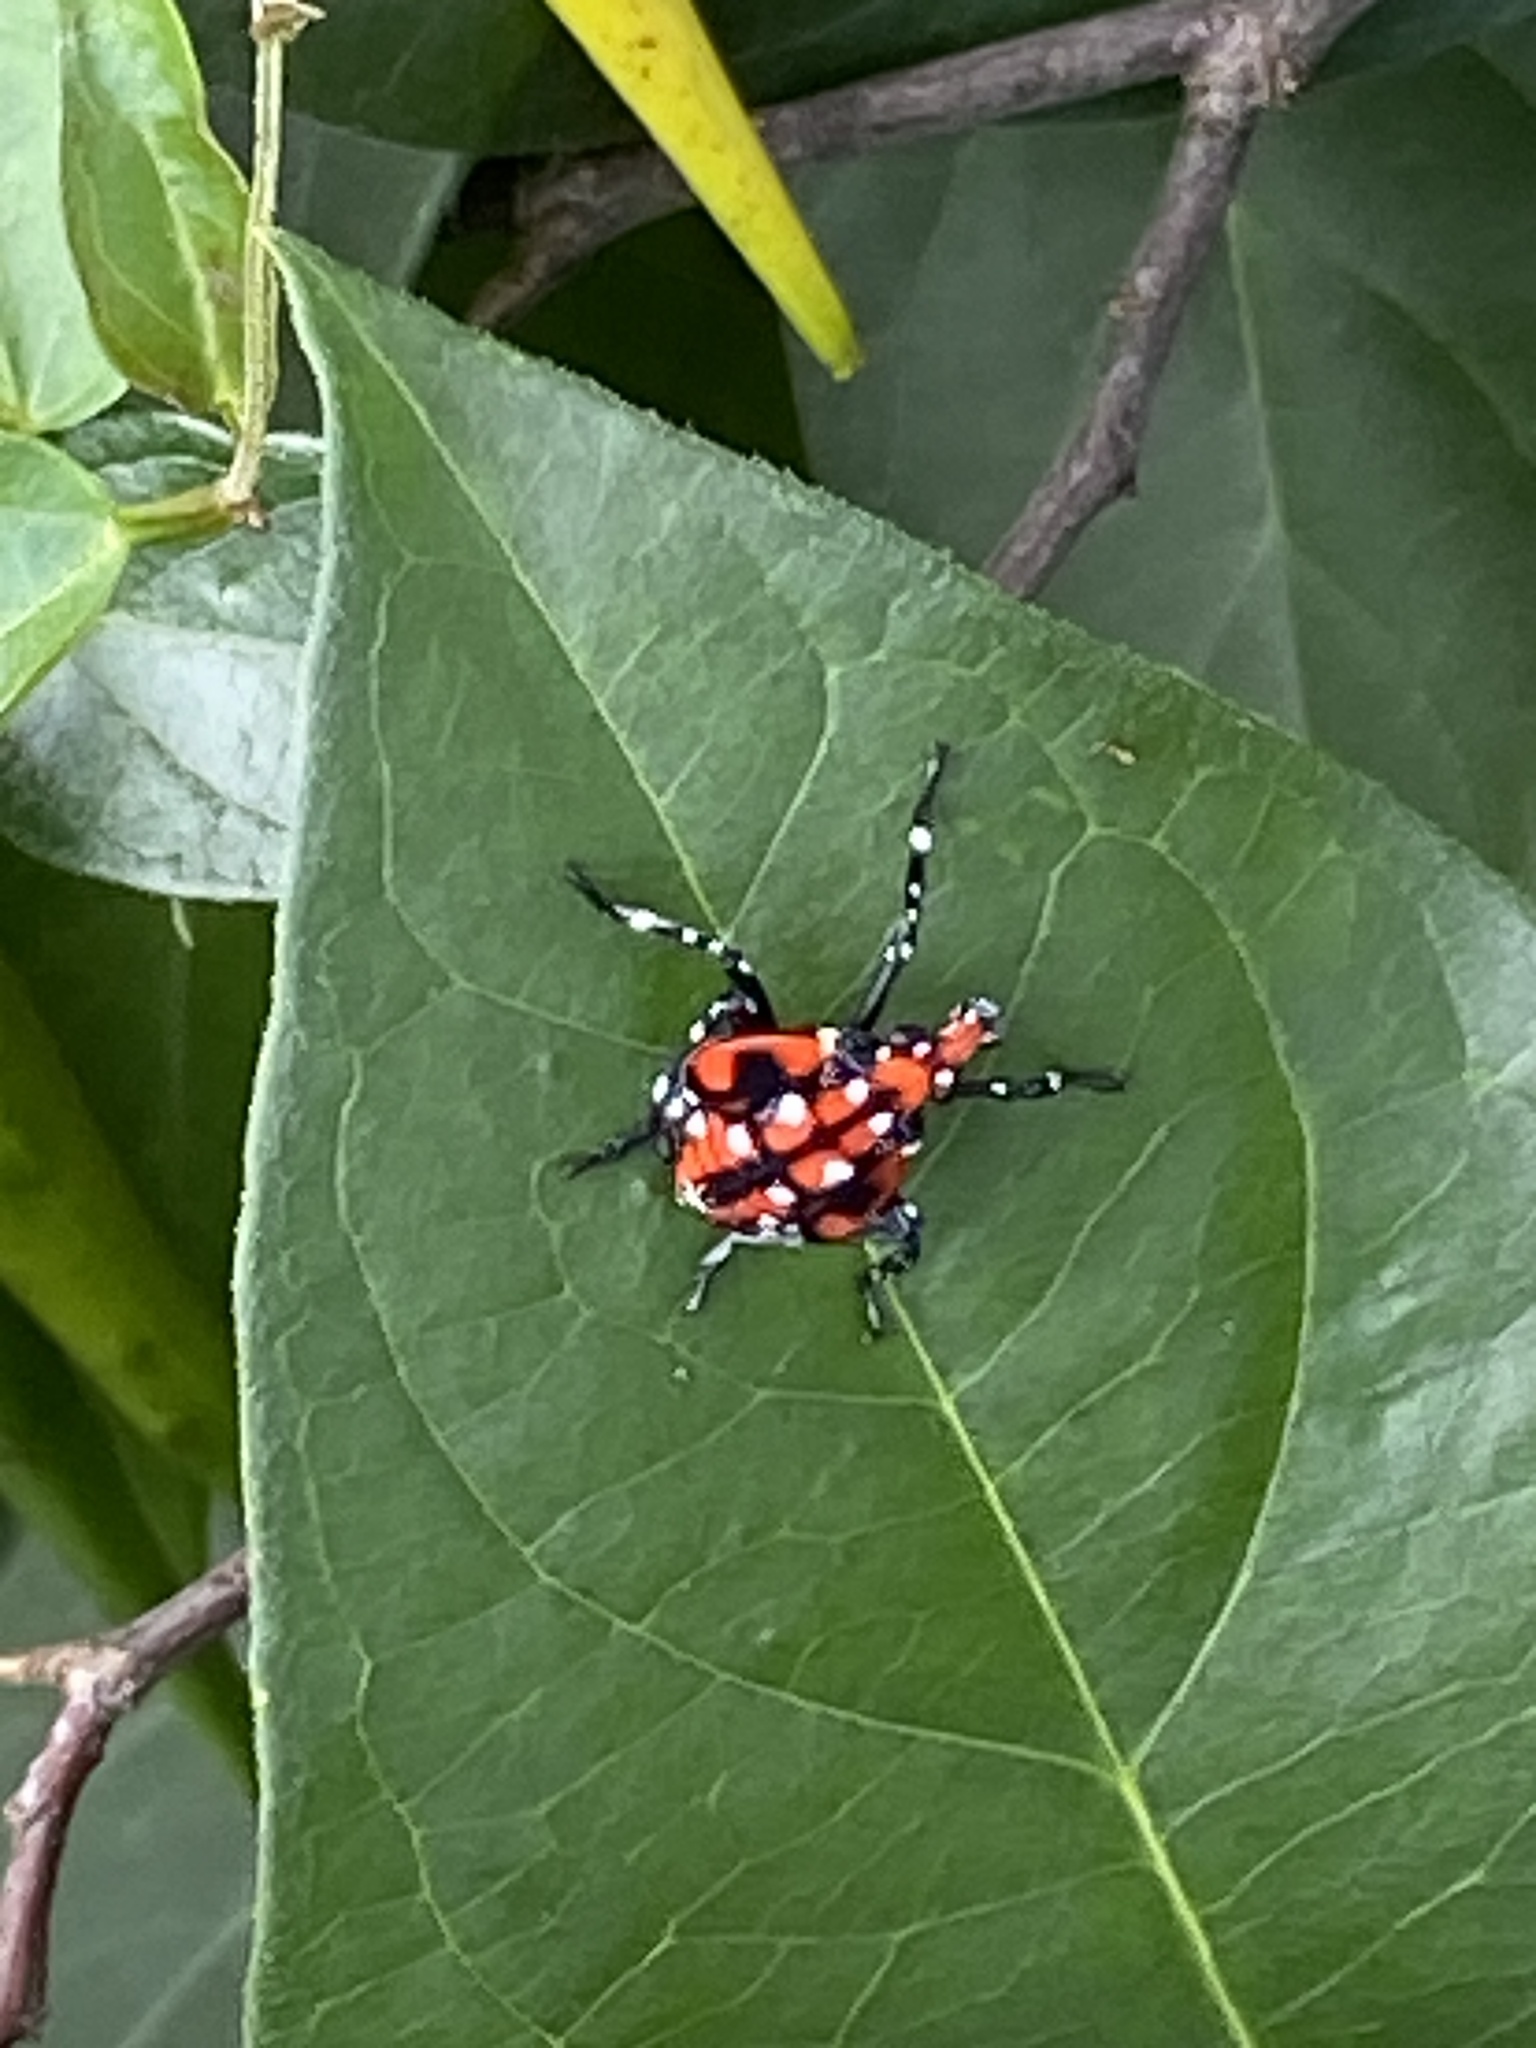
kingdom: Animalia
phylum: Arthropoda
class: Insecta
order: Hemiptera
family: Fulgoridae
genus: Lycorma
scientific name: Lycorma delicatula
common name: Spotted lanternfly
